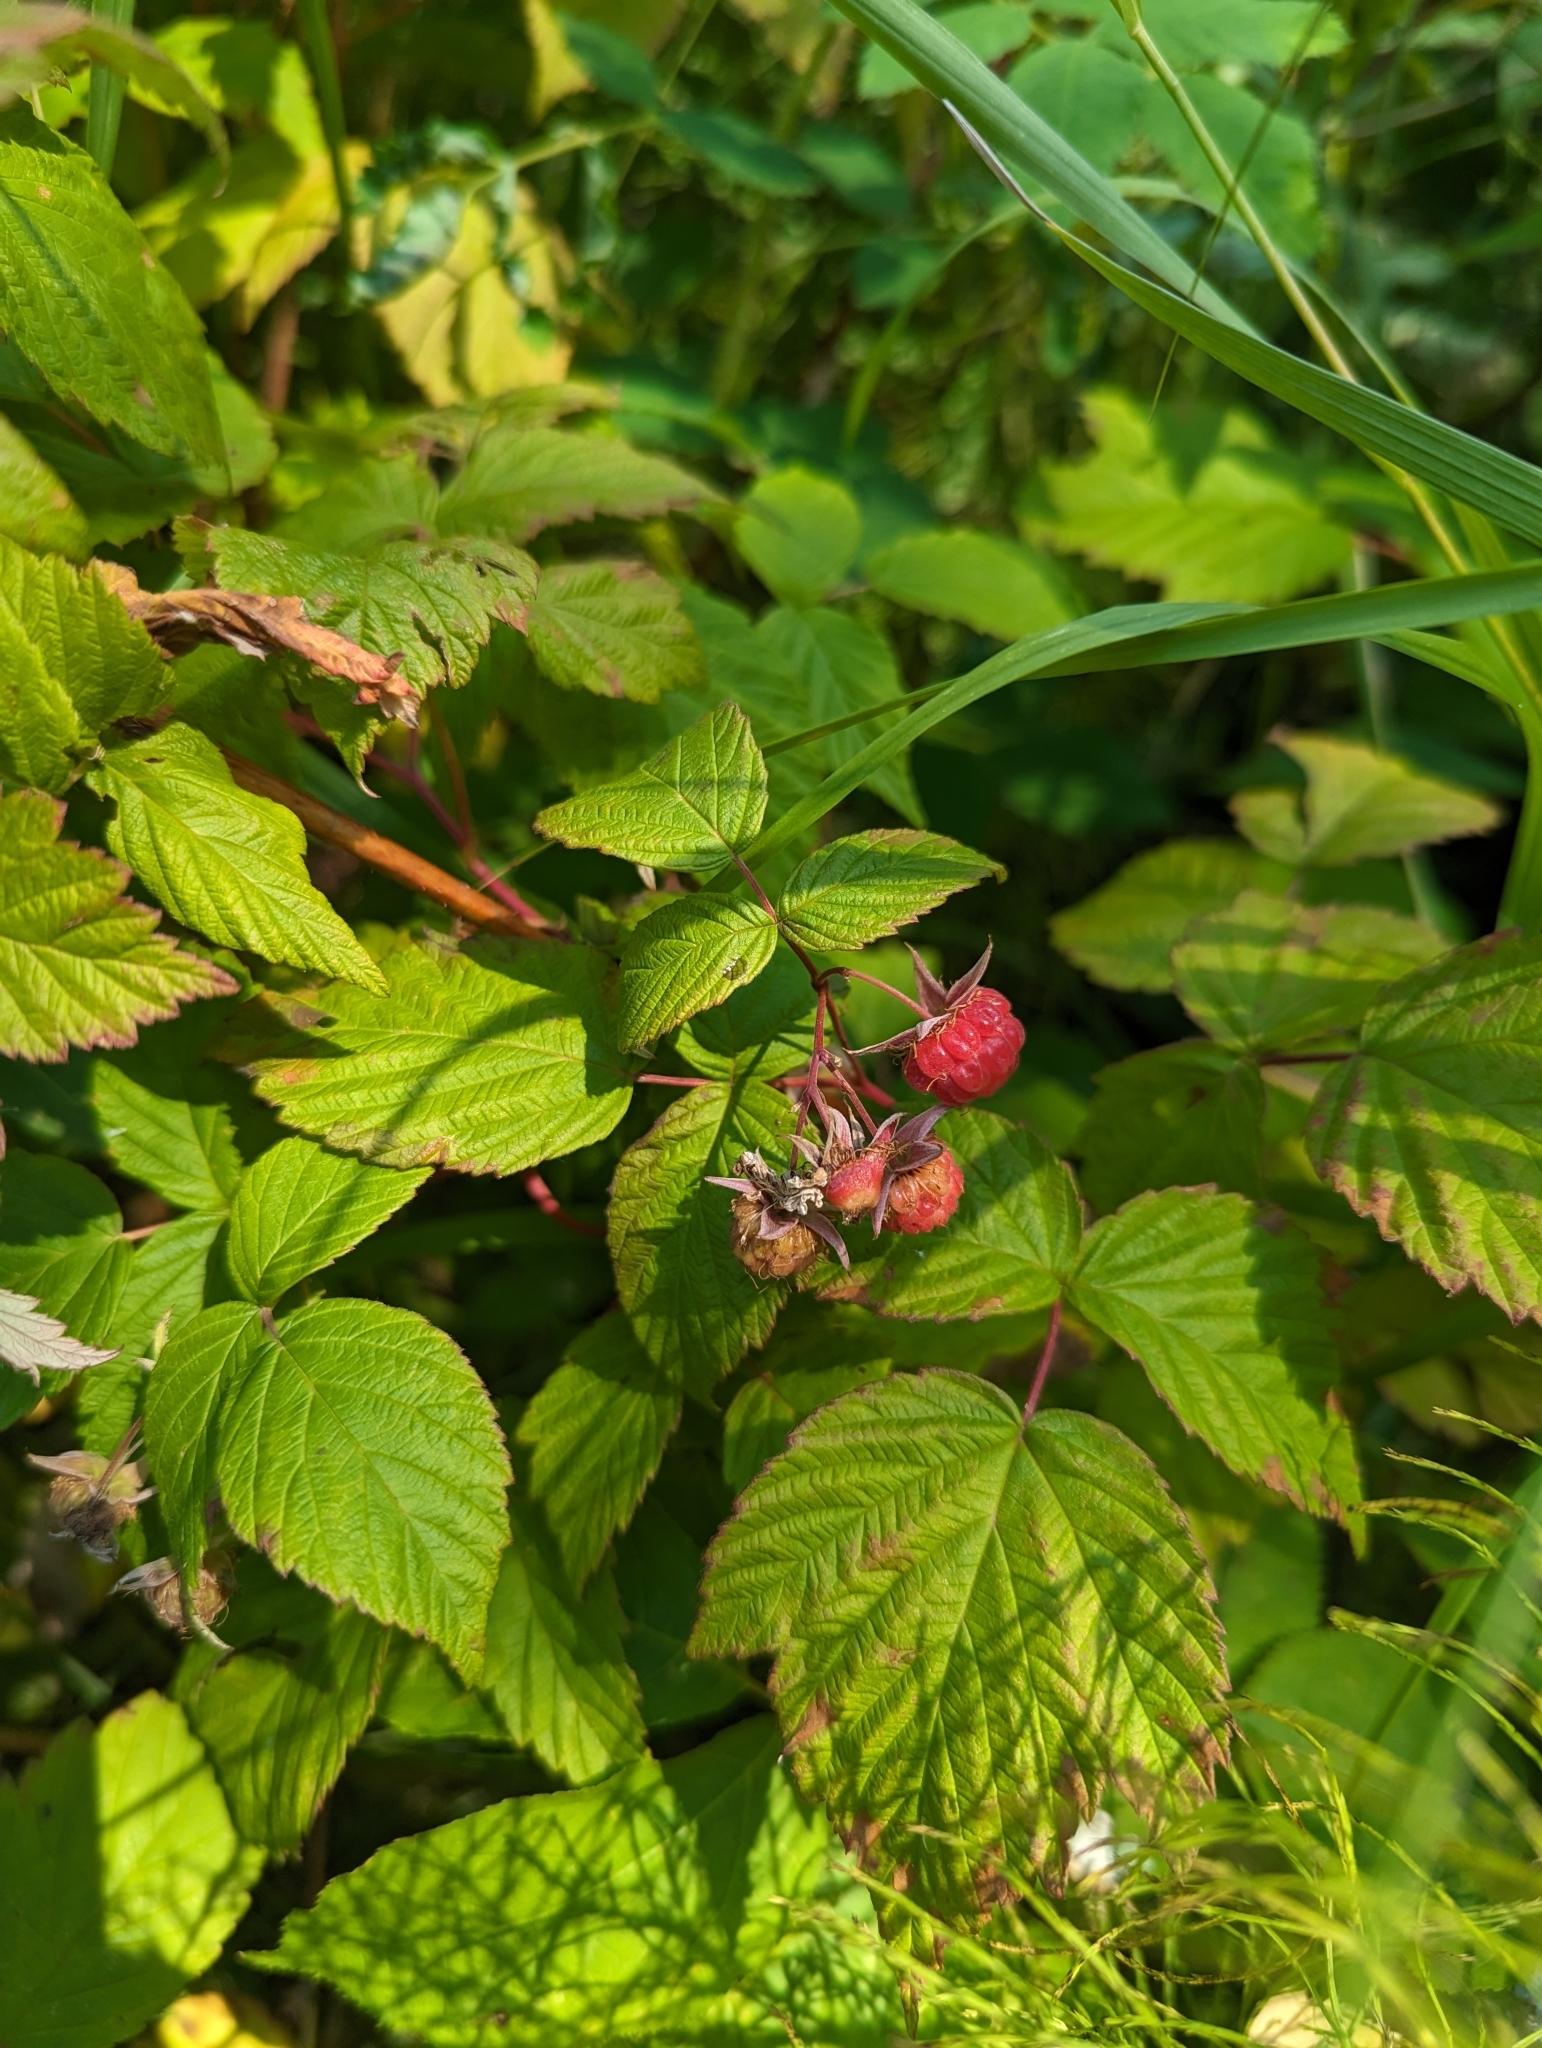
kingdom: Plantae
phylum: Tracheophyta
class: Magnoliopsida
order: Rosales
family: Rosaceae
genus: Rubus
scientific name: Rubus idaeus
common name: Raspberry
